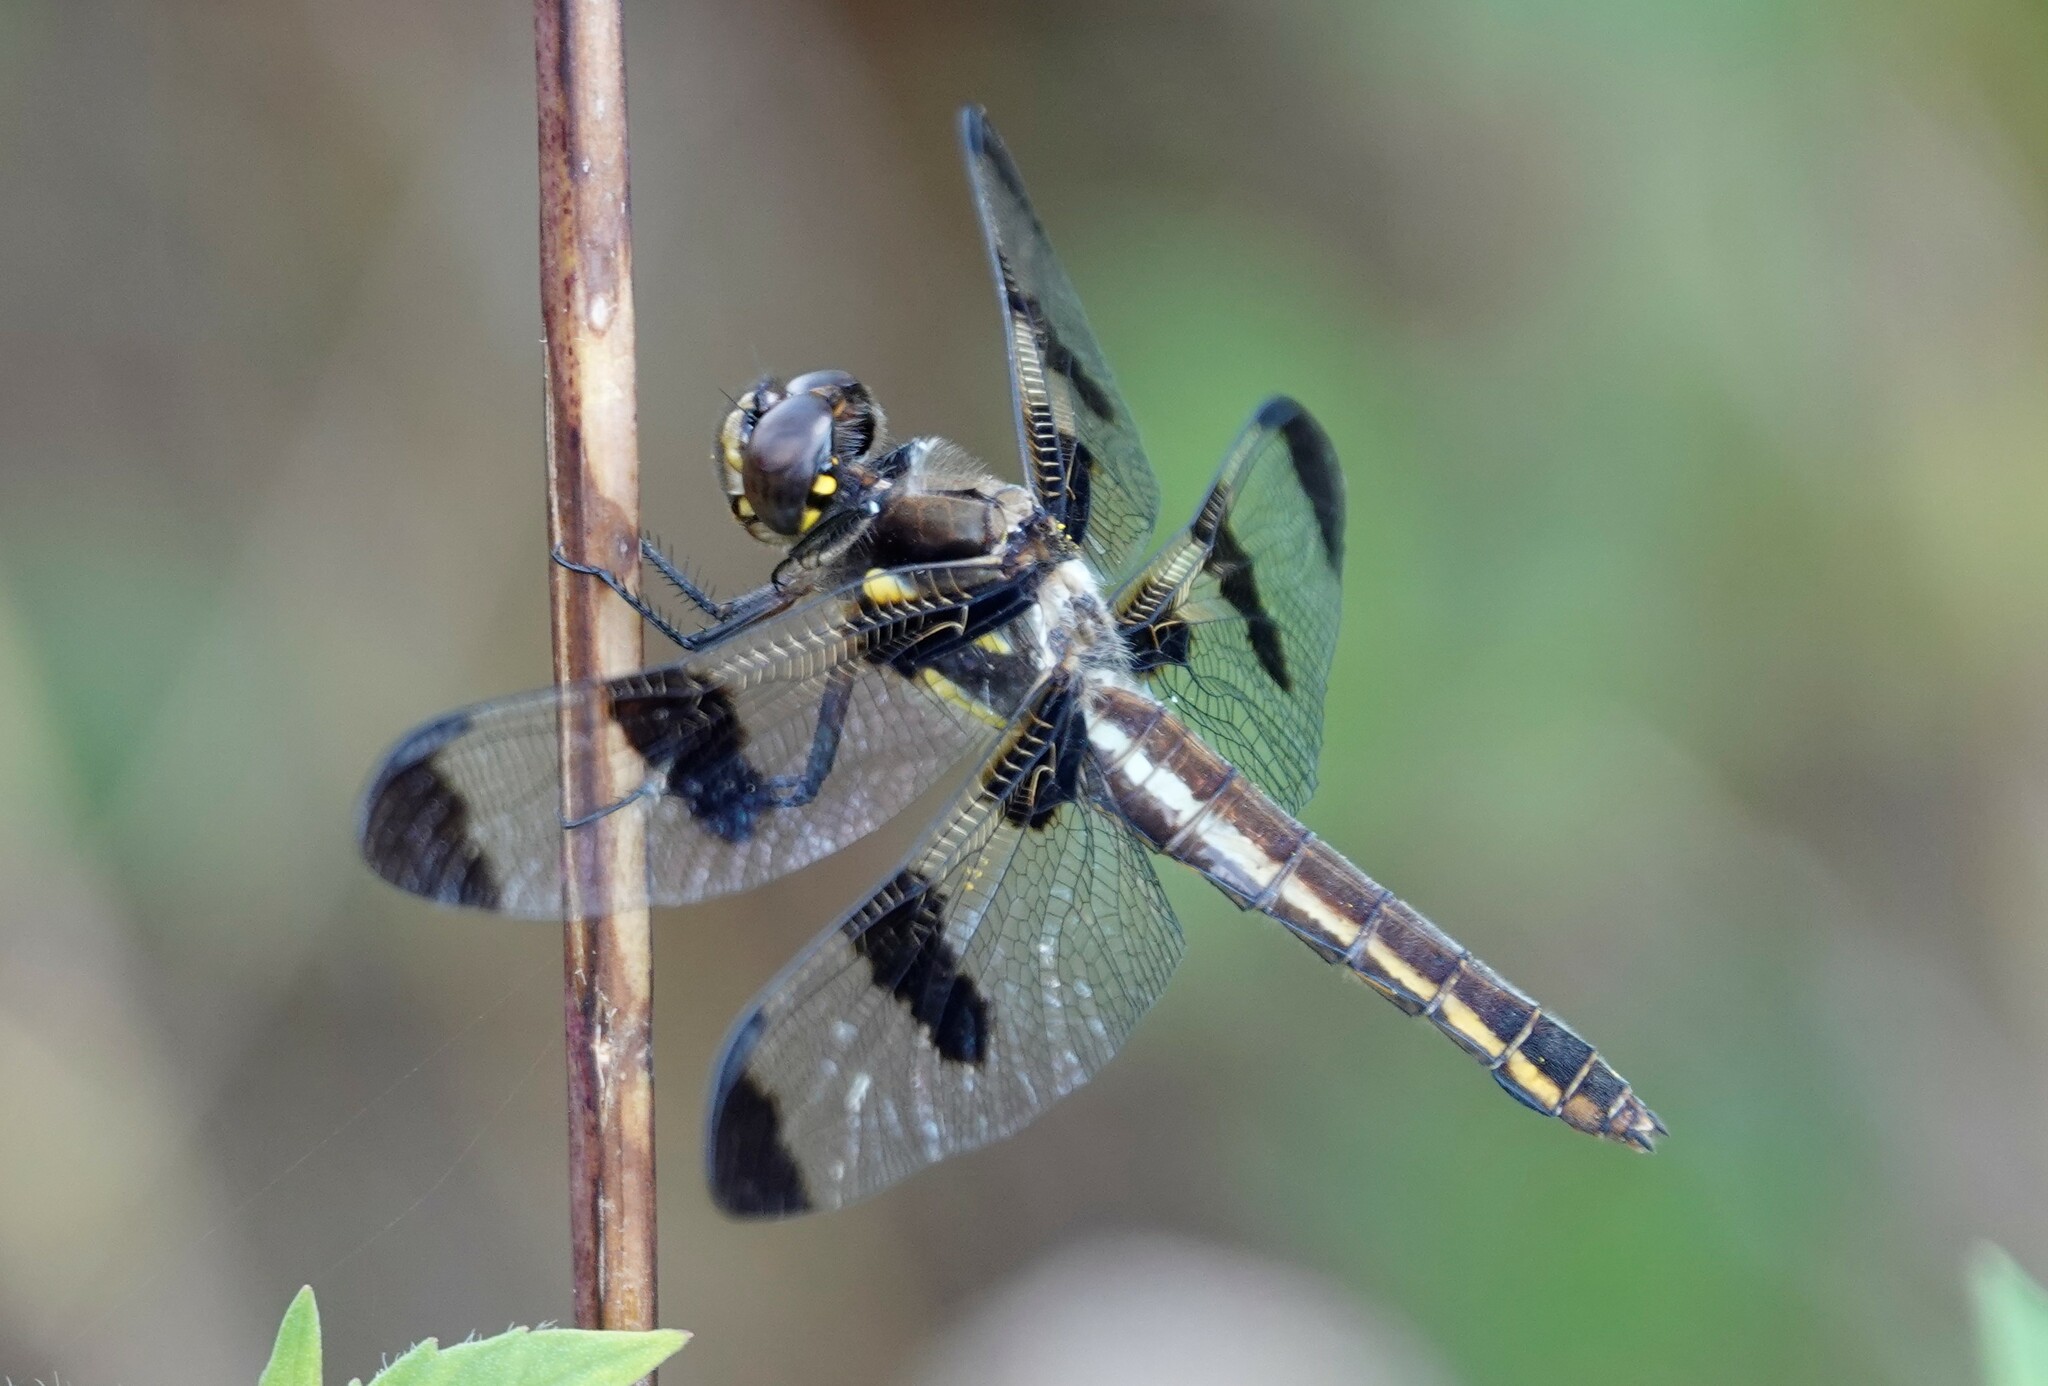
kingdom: Animalia
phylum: Arthropoda
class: Insecta
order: Odonata
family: Libellulidae
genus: Libellula
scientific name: Libellula pulchella
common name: Twelve-spotted skimmer
